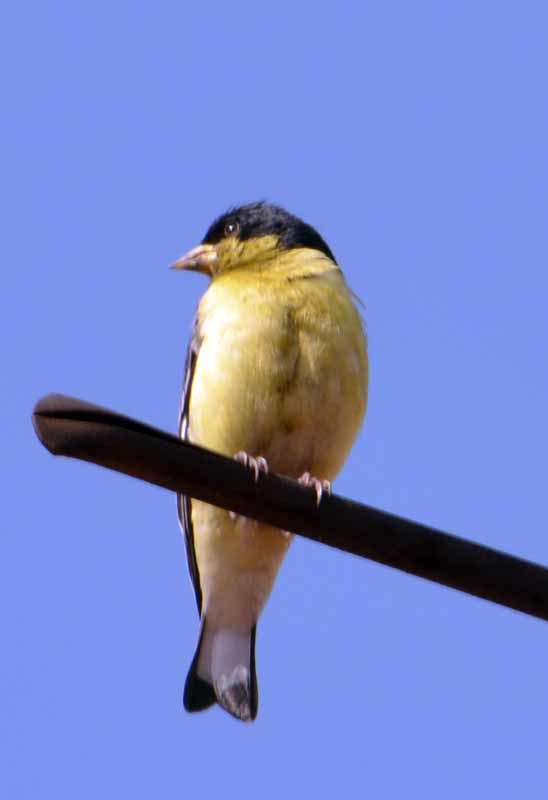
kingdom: Animalia
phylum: Chordata
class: Aves
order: Passeriformes
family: Fringillidae
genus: Spinus
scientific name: Spinus psaltria
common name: Lesser goldfinch
